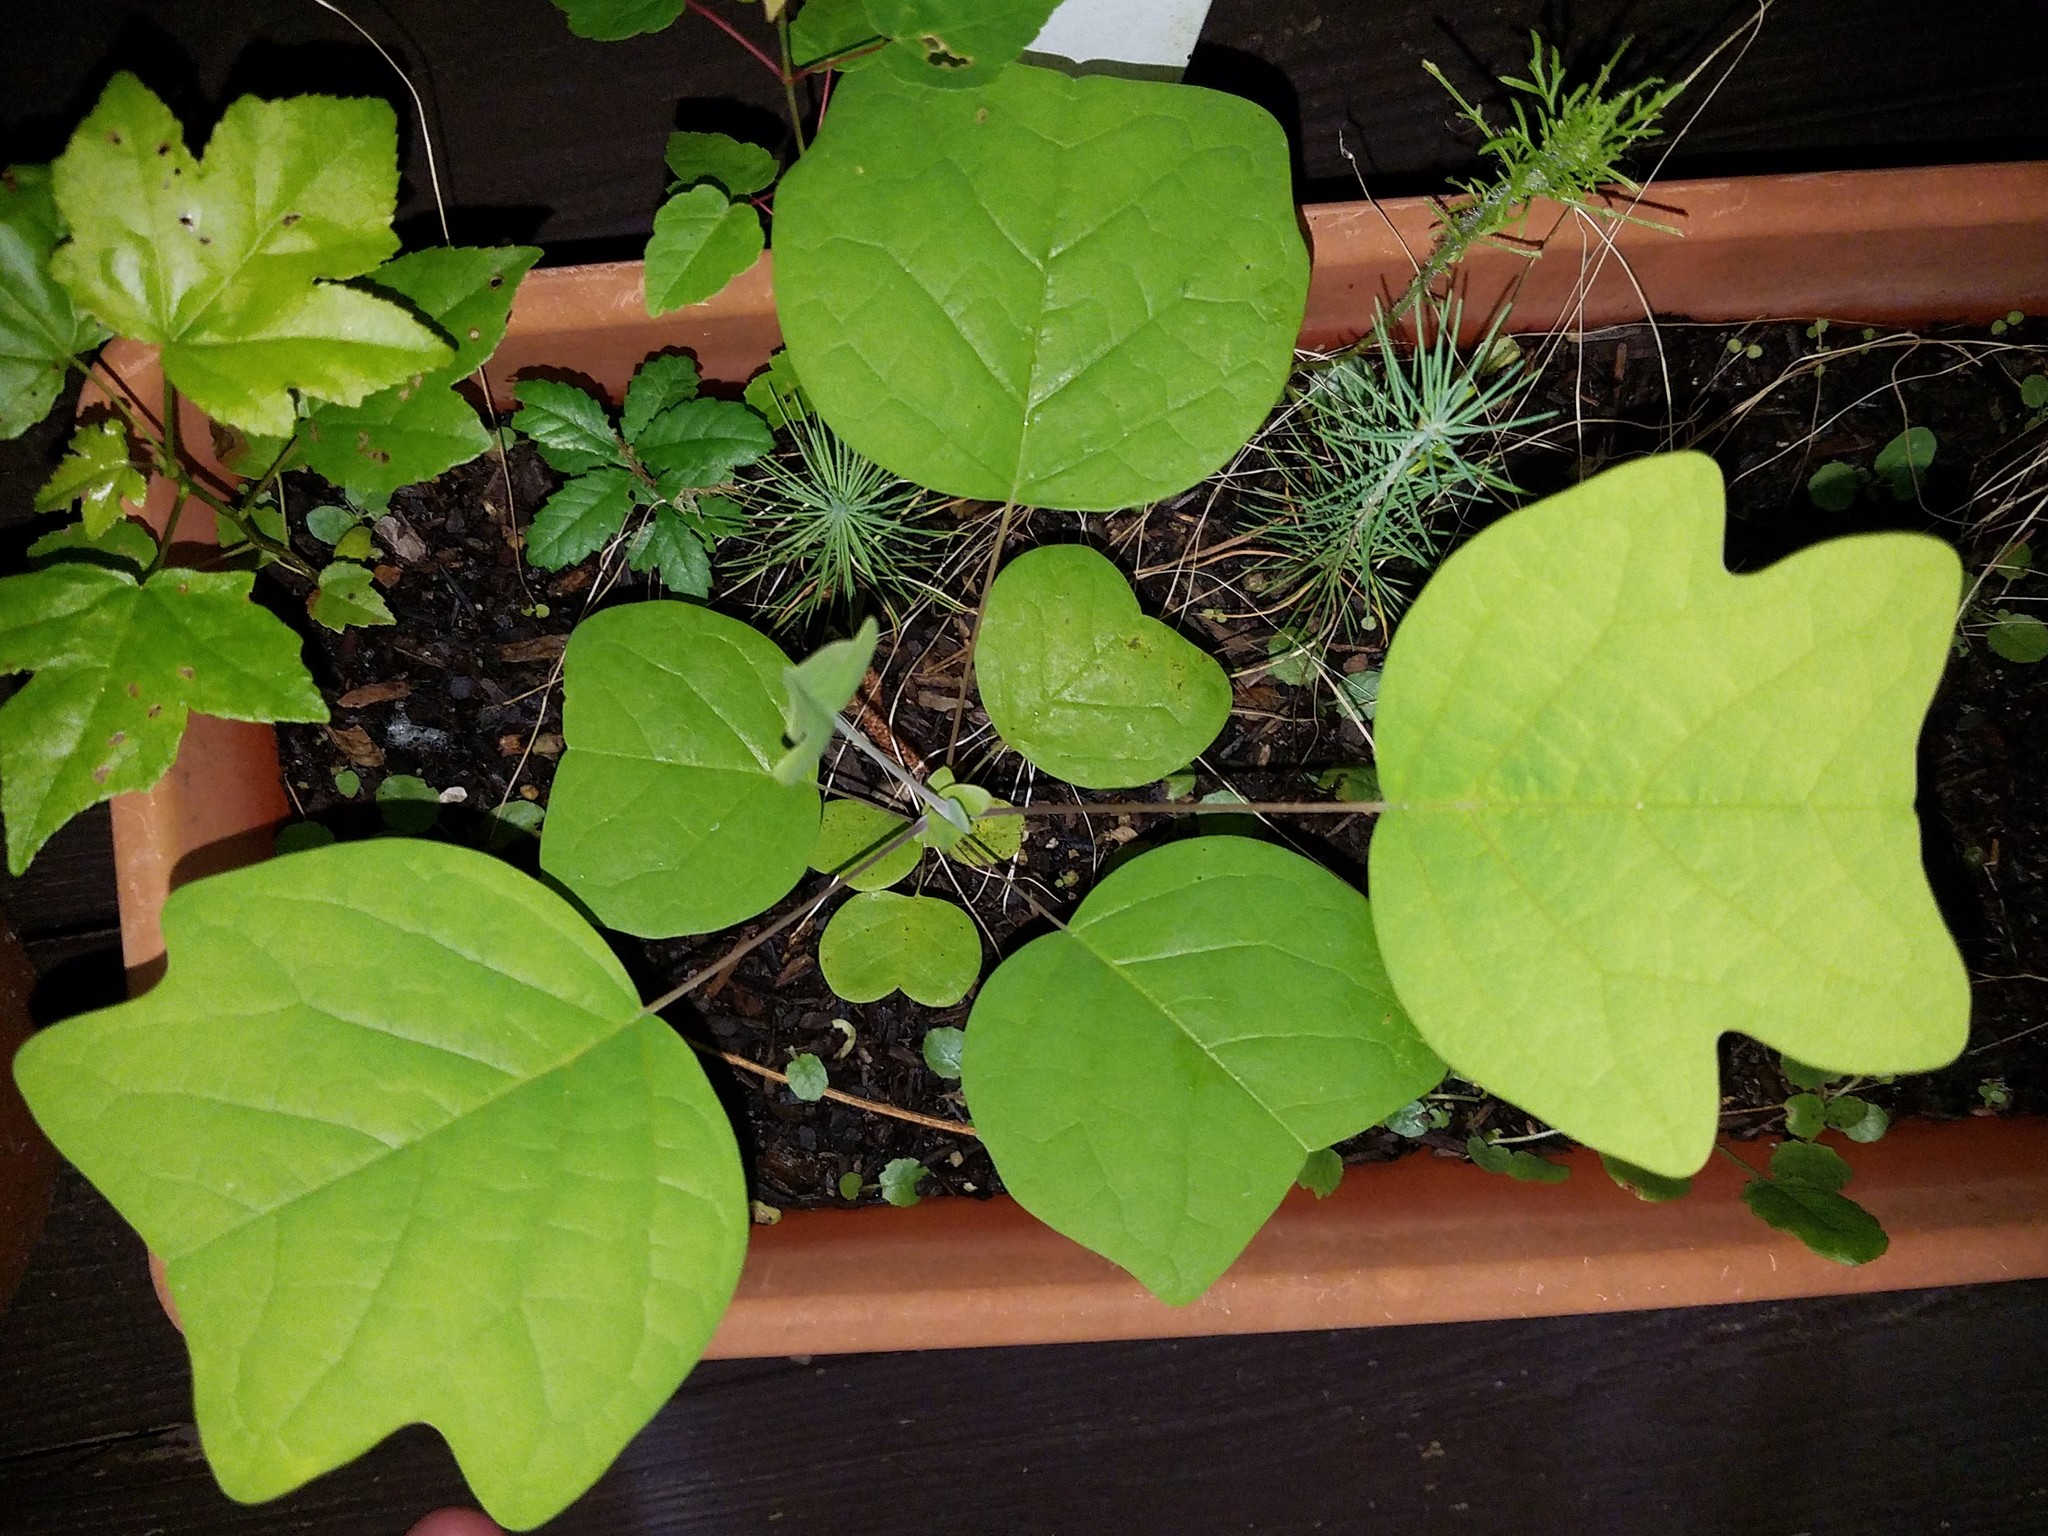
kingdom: Plantae
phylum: Tracheophyta
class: Magnoliopsida
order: Magnoliales
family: Magnoliaceae
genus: Liriodendron
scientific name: Liriodendron tulipifera
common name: Tulip tree
